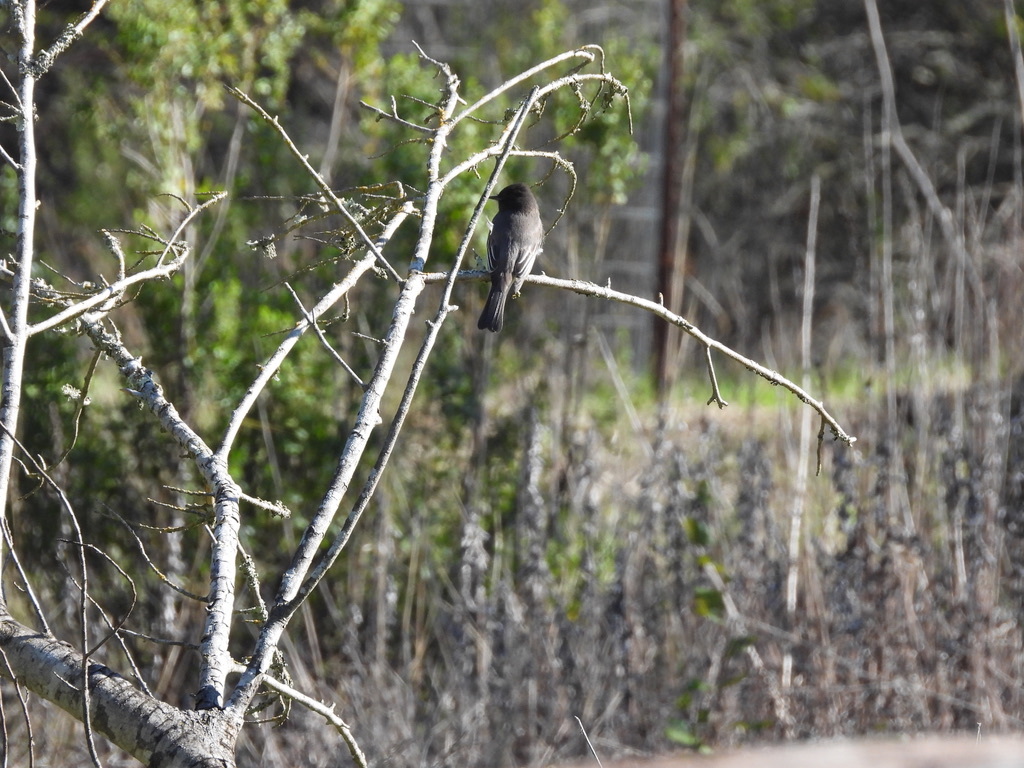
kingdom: Animalia
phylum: Chordata
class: Aves
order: Passeriformes
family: Tyrannidae
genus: Sayornis
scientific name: Sayornis nigricans
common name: Black phoebe
